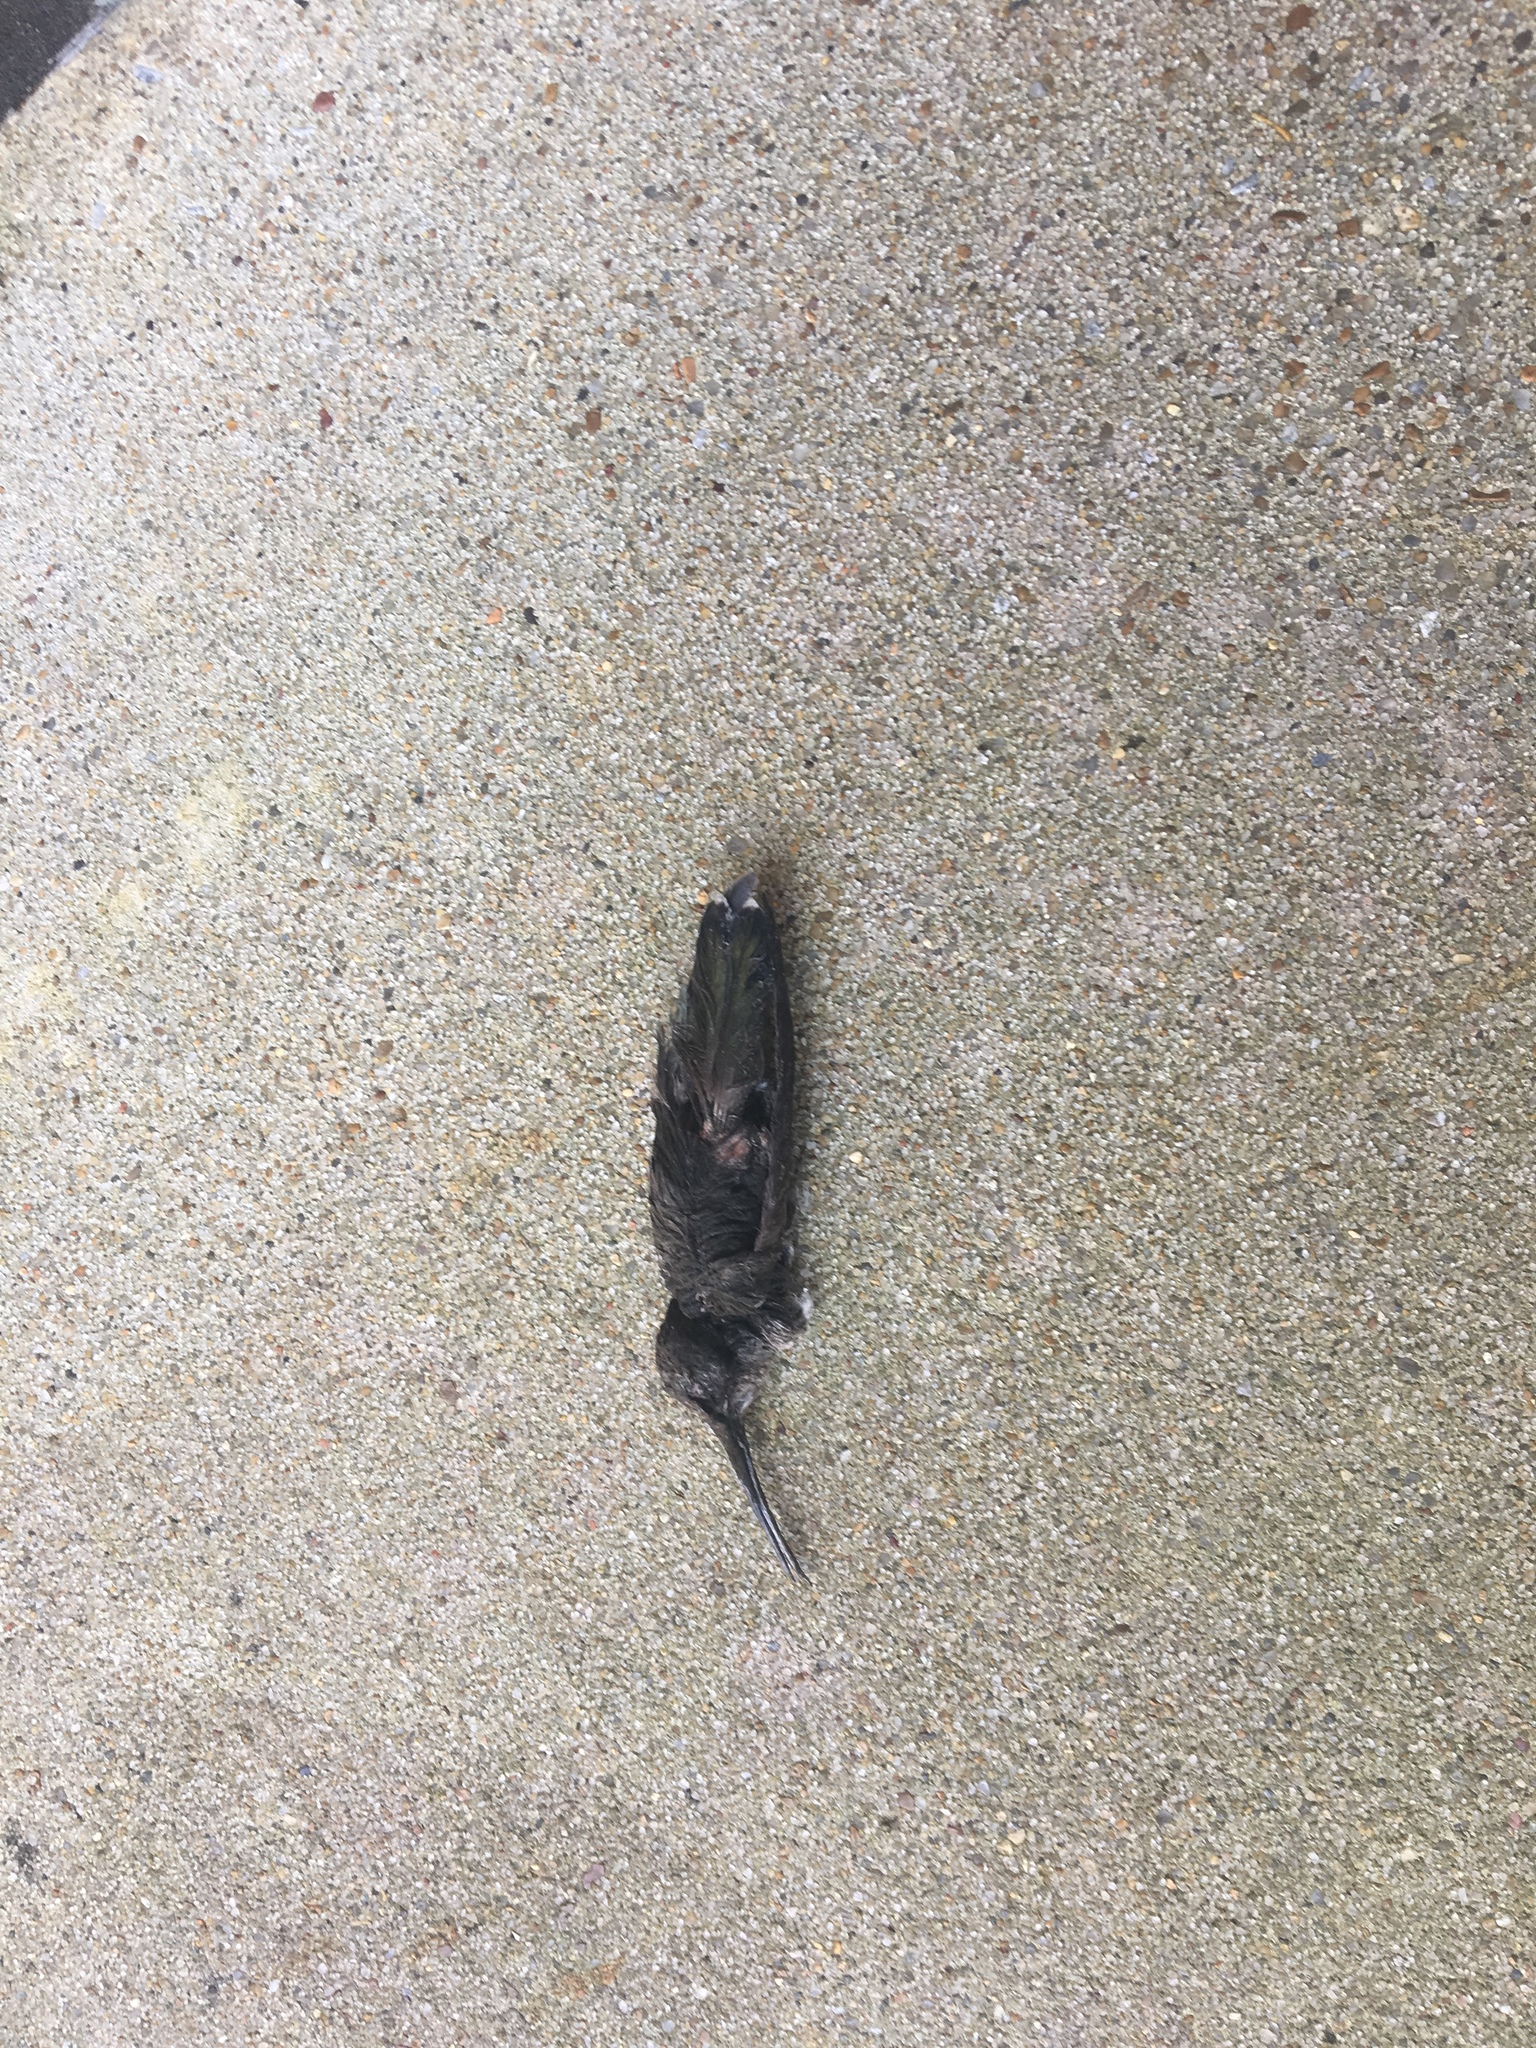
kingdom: Animalia
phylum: Chordata
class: Aves
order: Apodiformes
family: Trochilidae
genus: Archilochus
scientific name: Archilochus colubris
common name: Ruby-throated hummingbird
